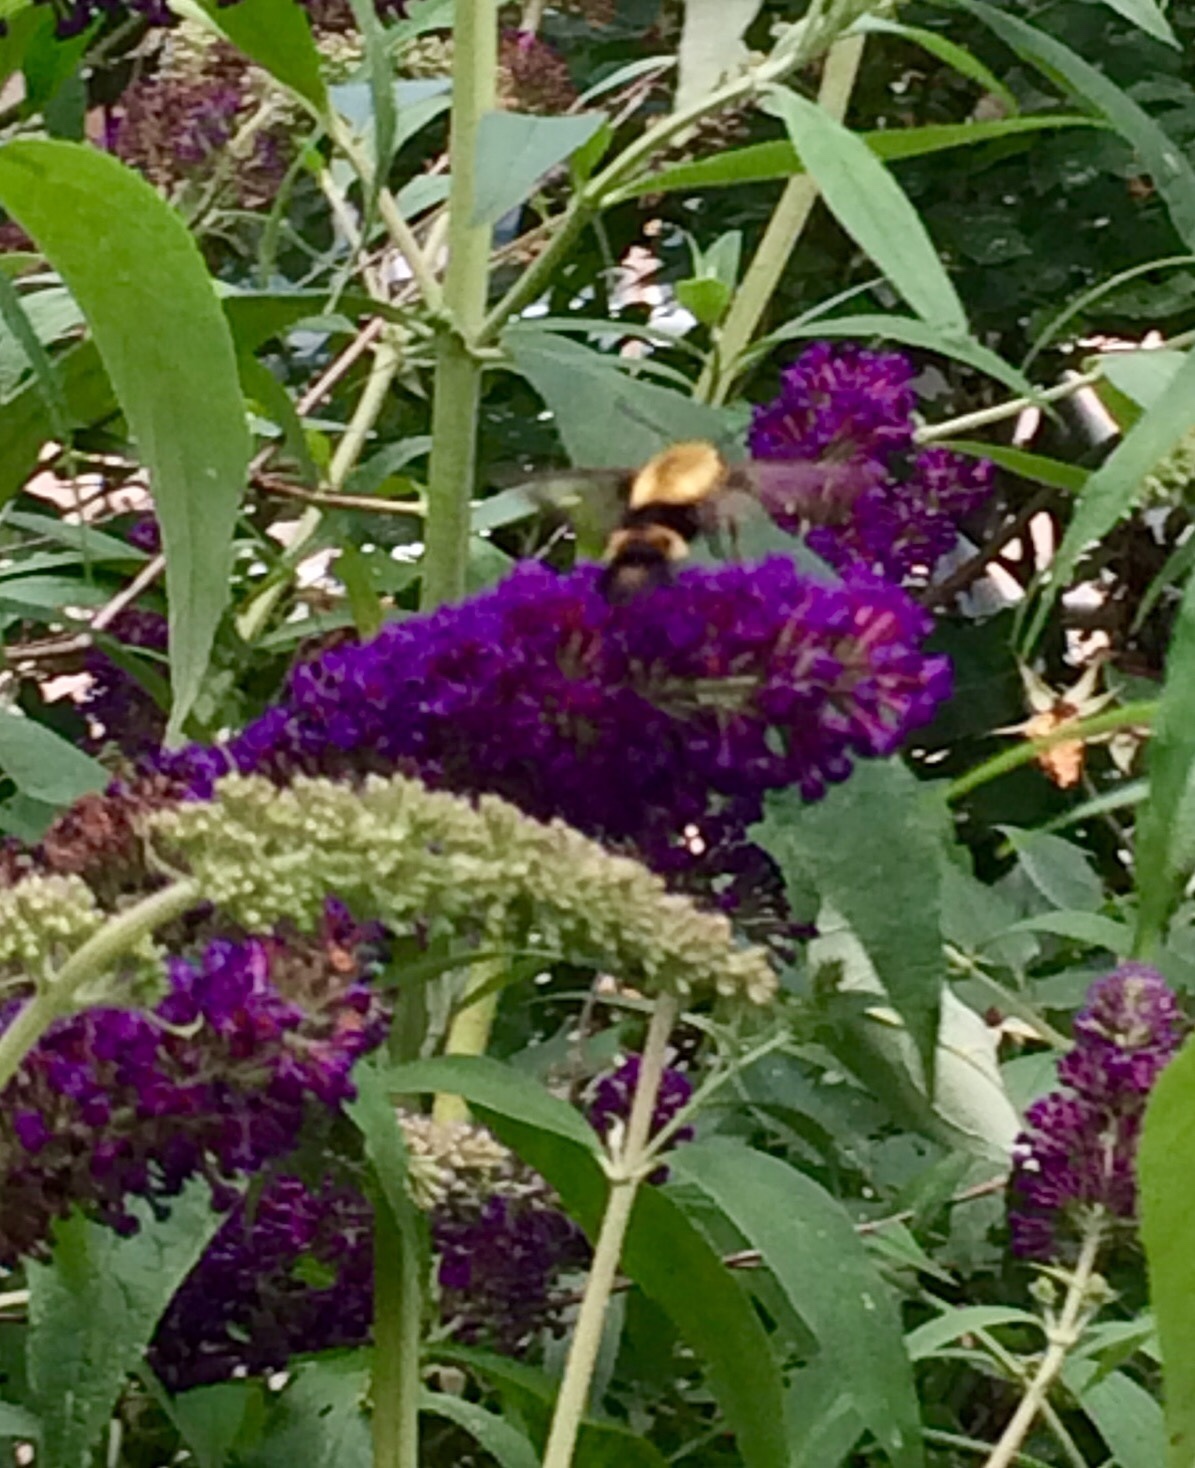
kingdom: Animalia
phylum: Arthropoda
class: Insecta
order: Lepidoptera
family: Sphingidae
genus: Hemaris
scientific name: Hemaris diffinis
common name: Bumblebee moth
